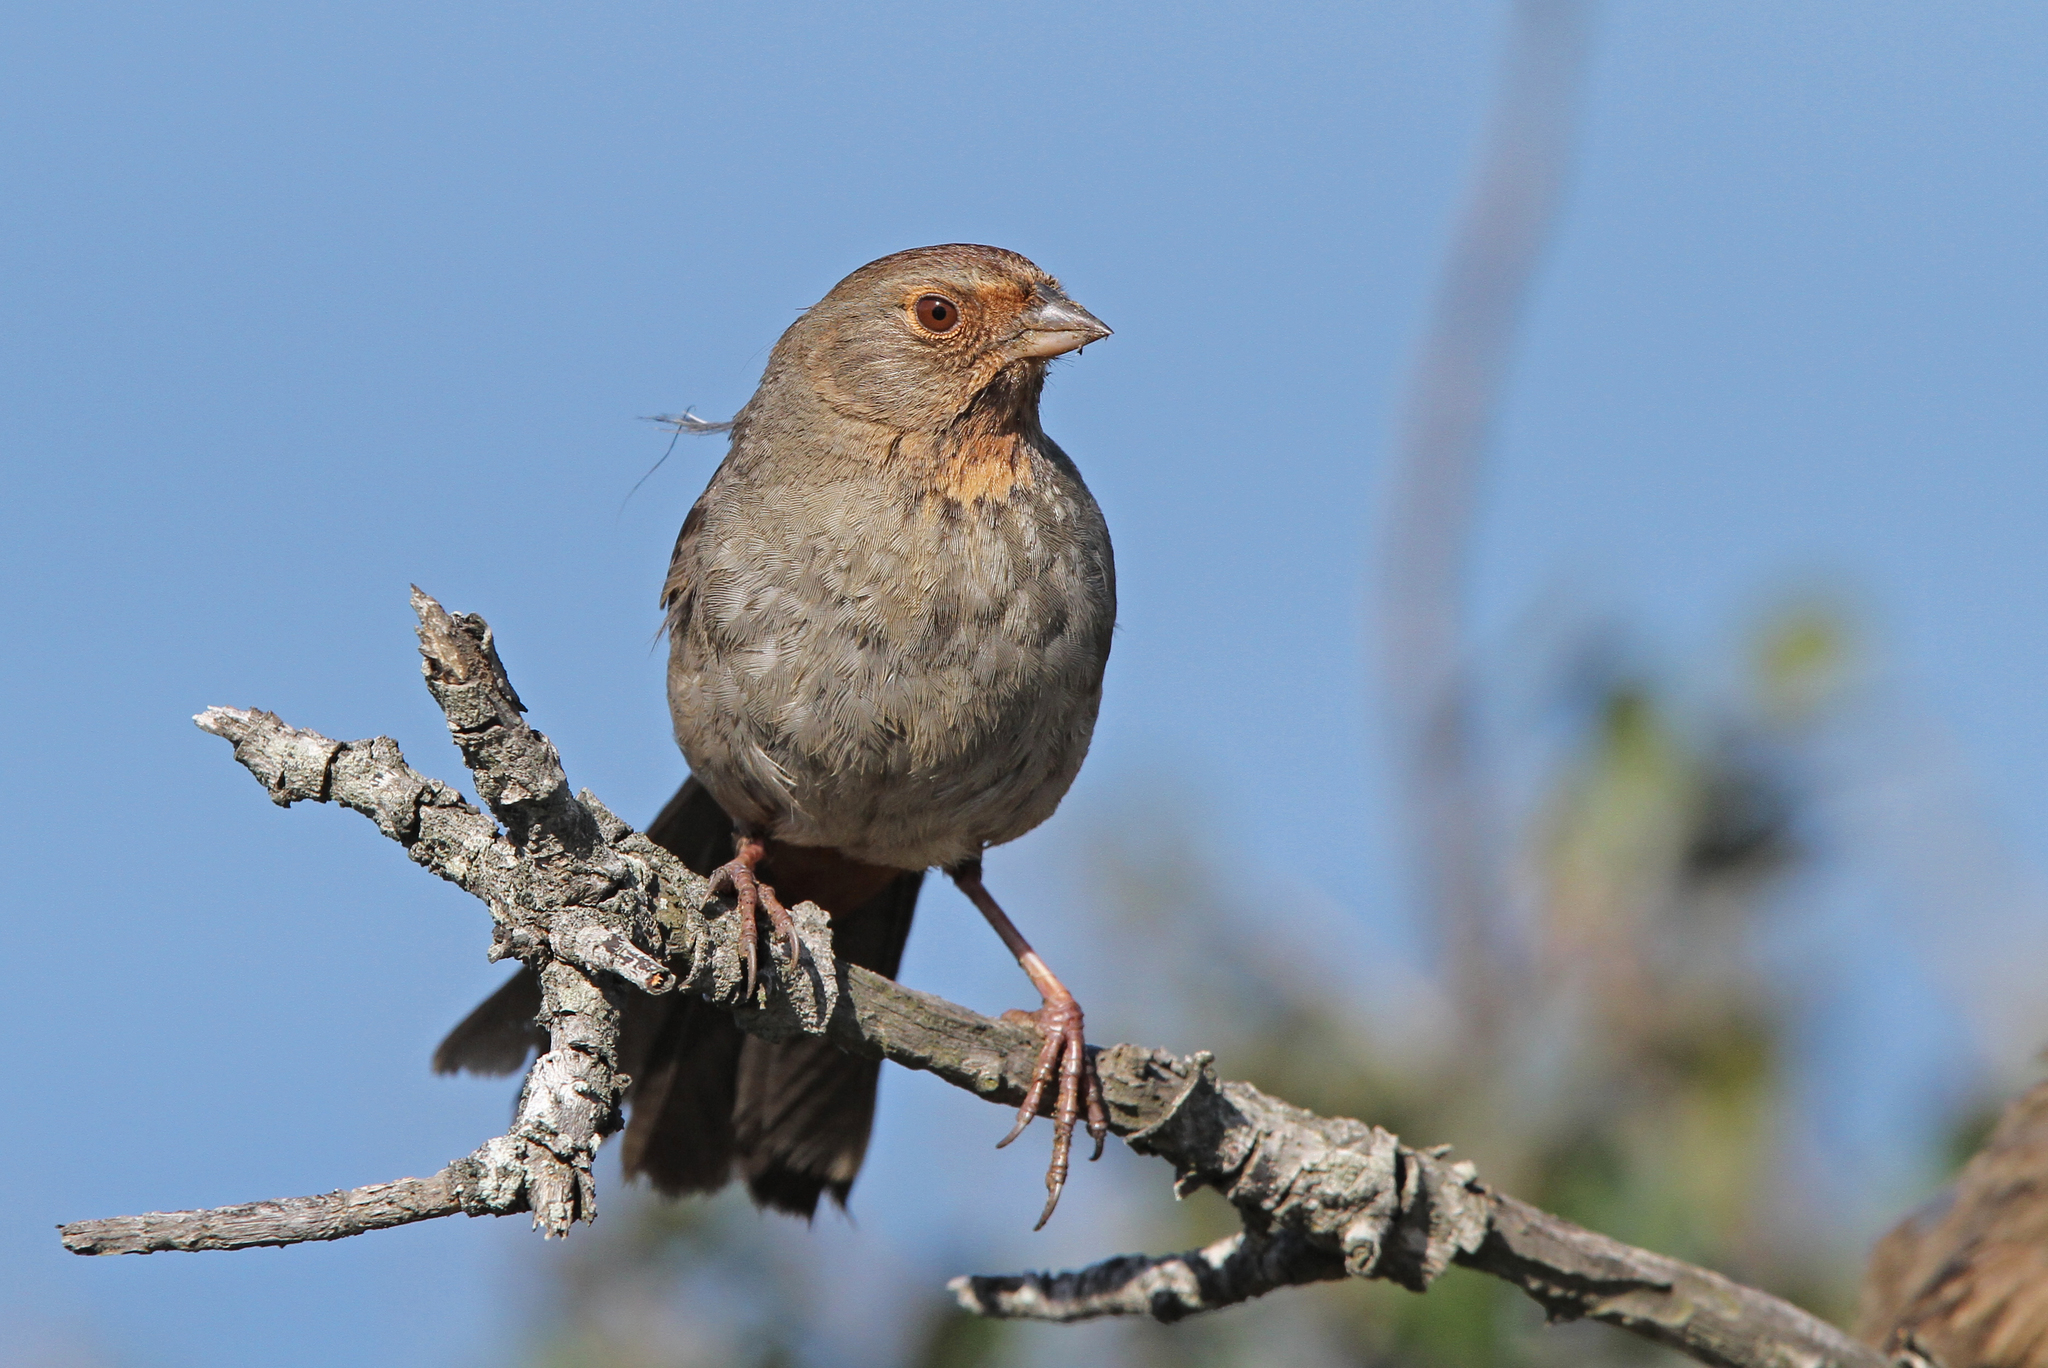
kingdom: Animalia
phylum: Chordata
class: Aves
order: Passeriformes
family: Passerellidae
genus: Melozone
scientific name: Melozone crissalis
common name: California towhee
